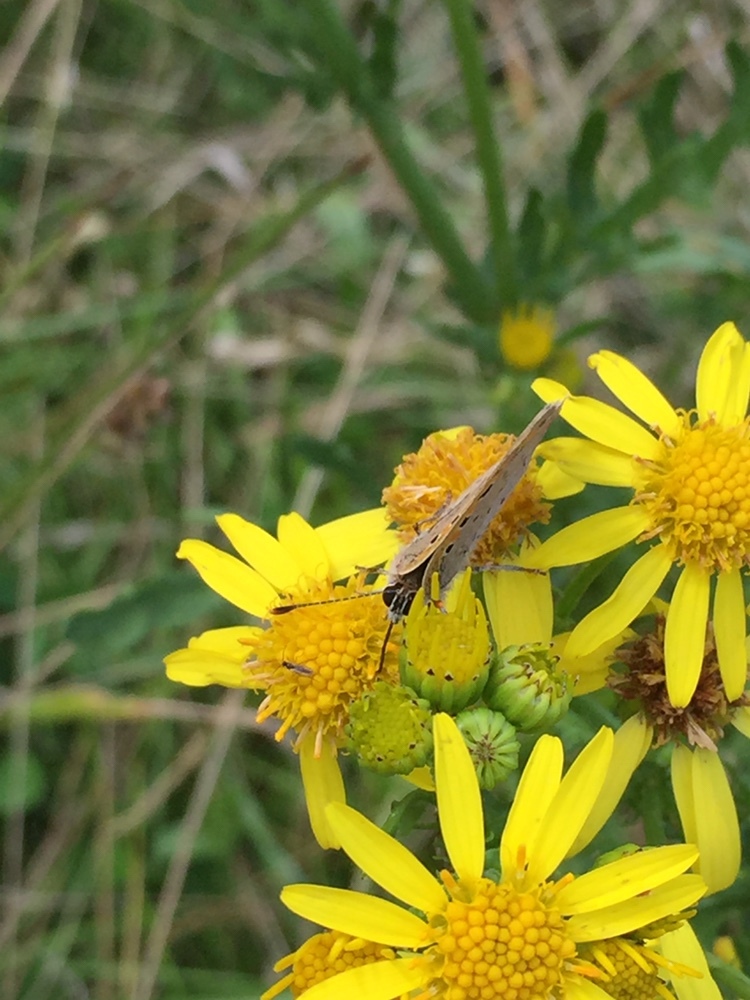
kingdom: Animalia
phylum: Arthropoda
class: Insecta
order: Lepidoptera
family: Lycaenidae
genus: Lycaena
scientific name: Lycaena phlaeas
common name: Small copper
